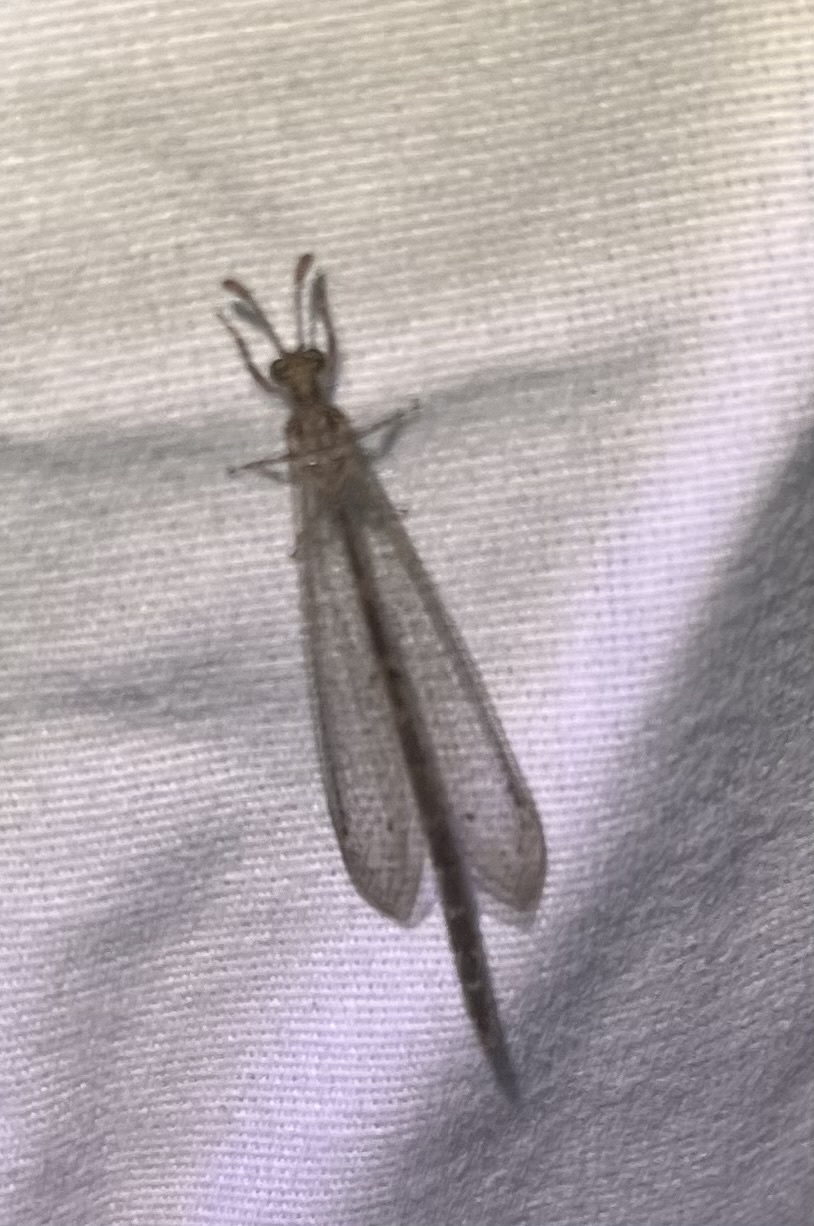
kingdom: Animalia
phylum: Arthropoda
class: Insecta
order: Neuroptera
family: Myrmeleontidae
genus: Brachynemurus
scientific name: Brachynemurus sackeni
